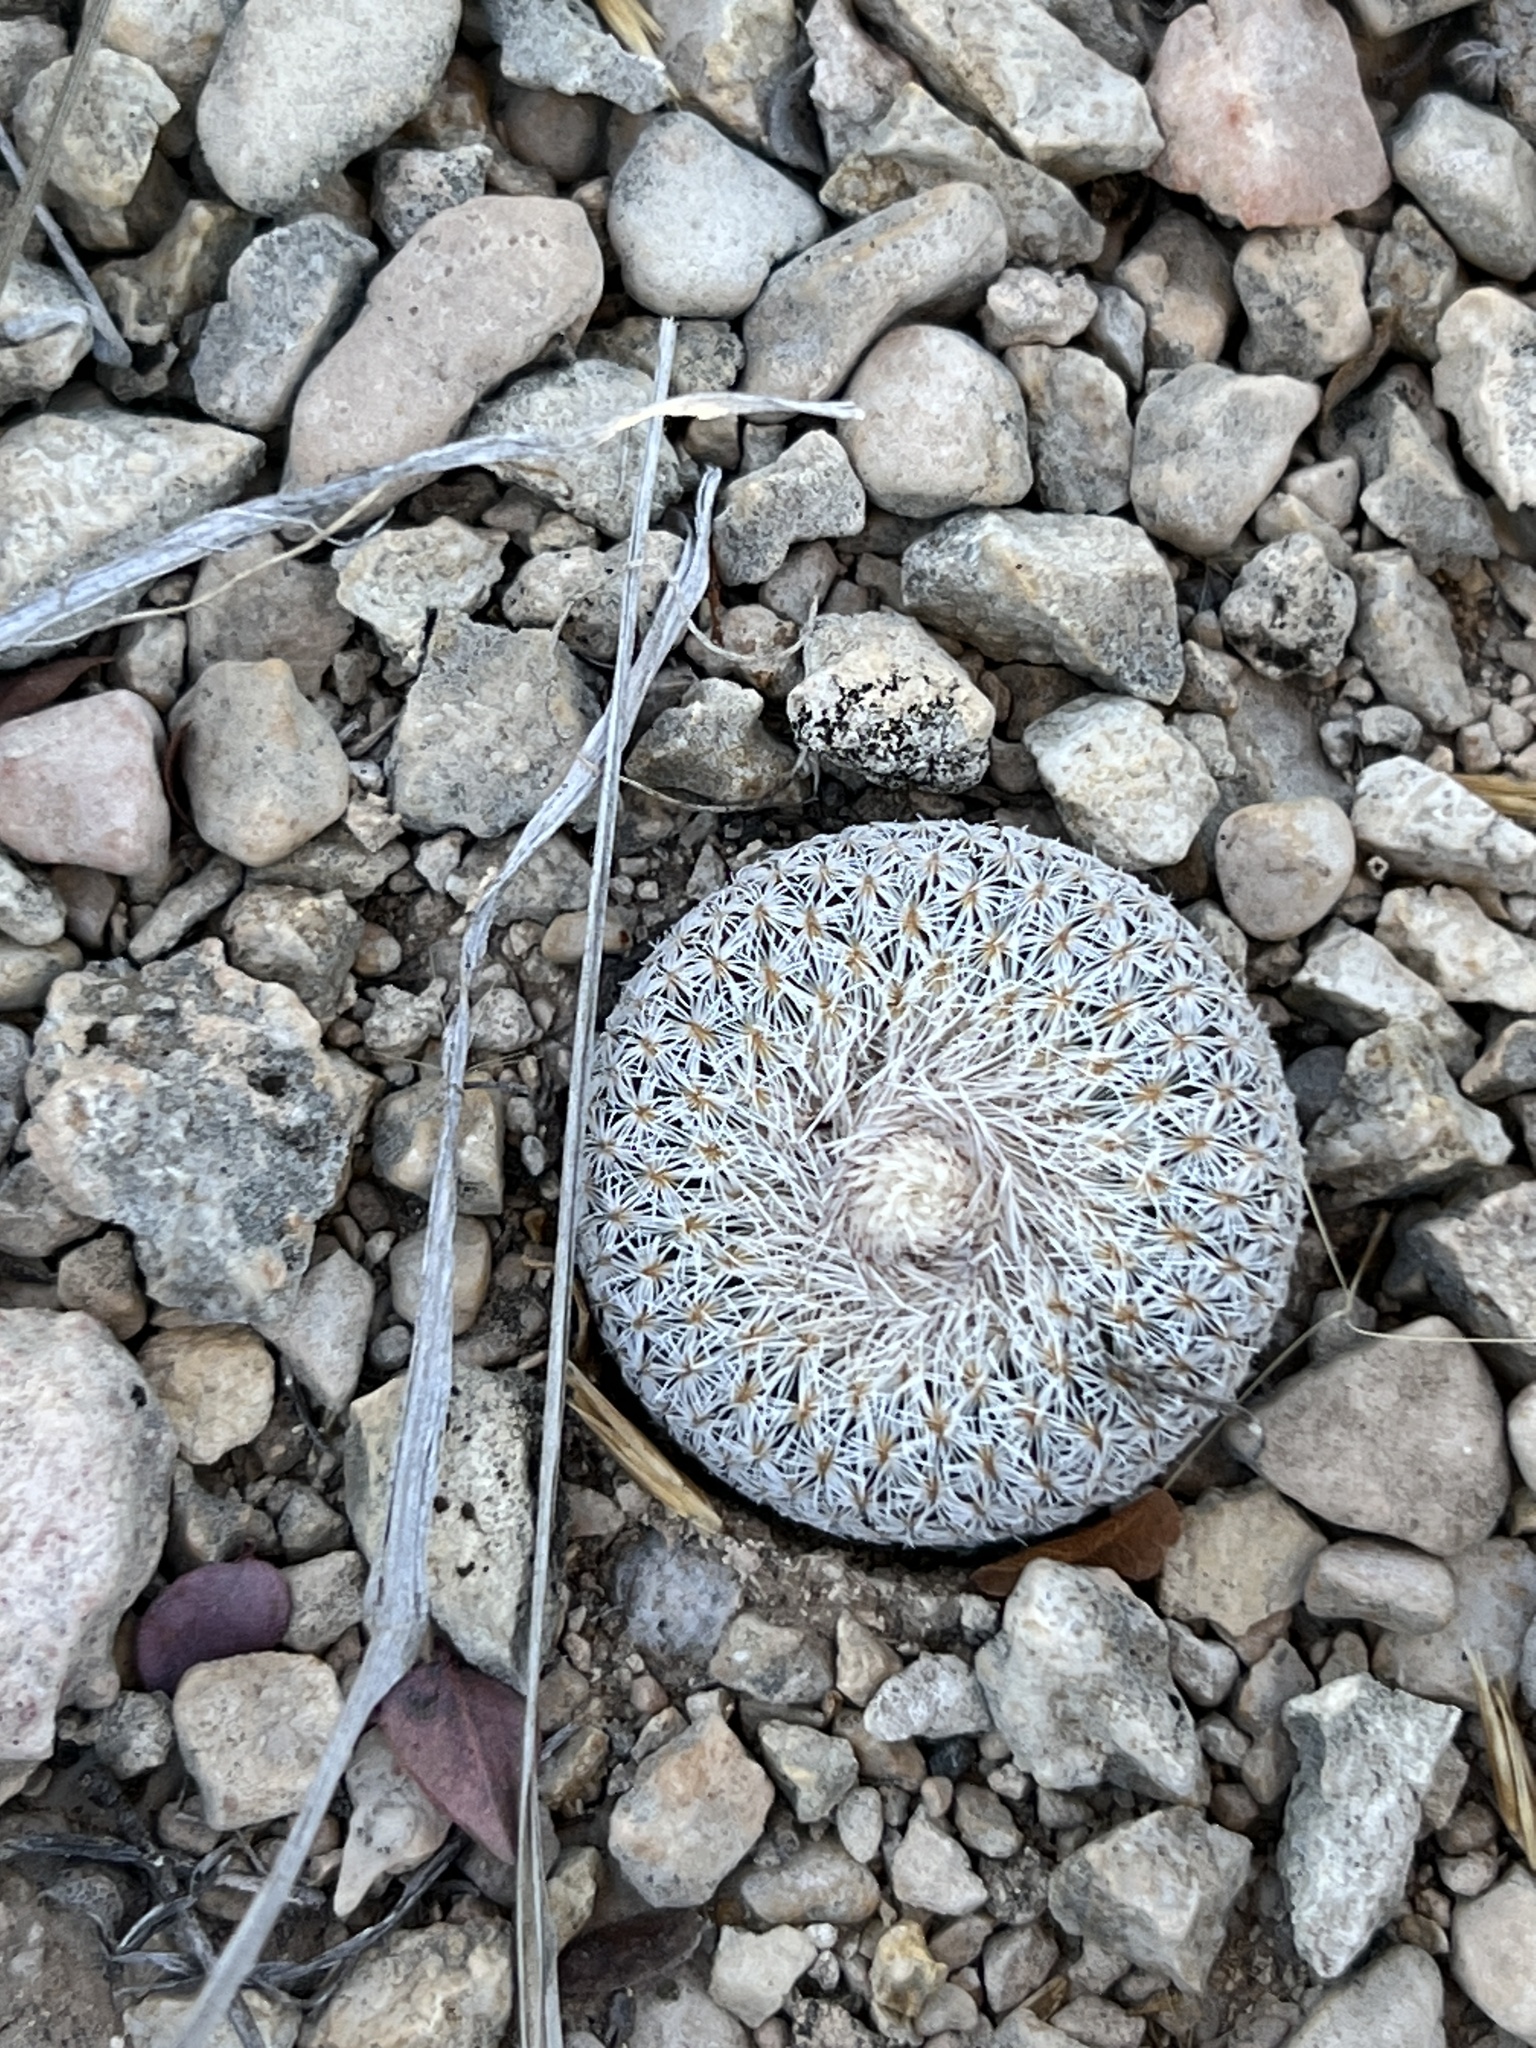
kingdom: Plantae
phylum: Tracheophyta
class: Magnoliopsida
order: Caryophyllales
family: Cactaceae
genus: Epithelantha
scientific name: Epithelantha micromeris
